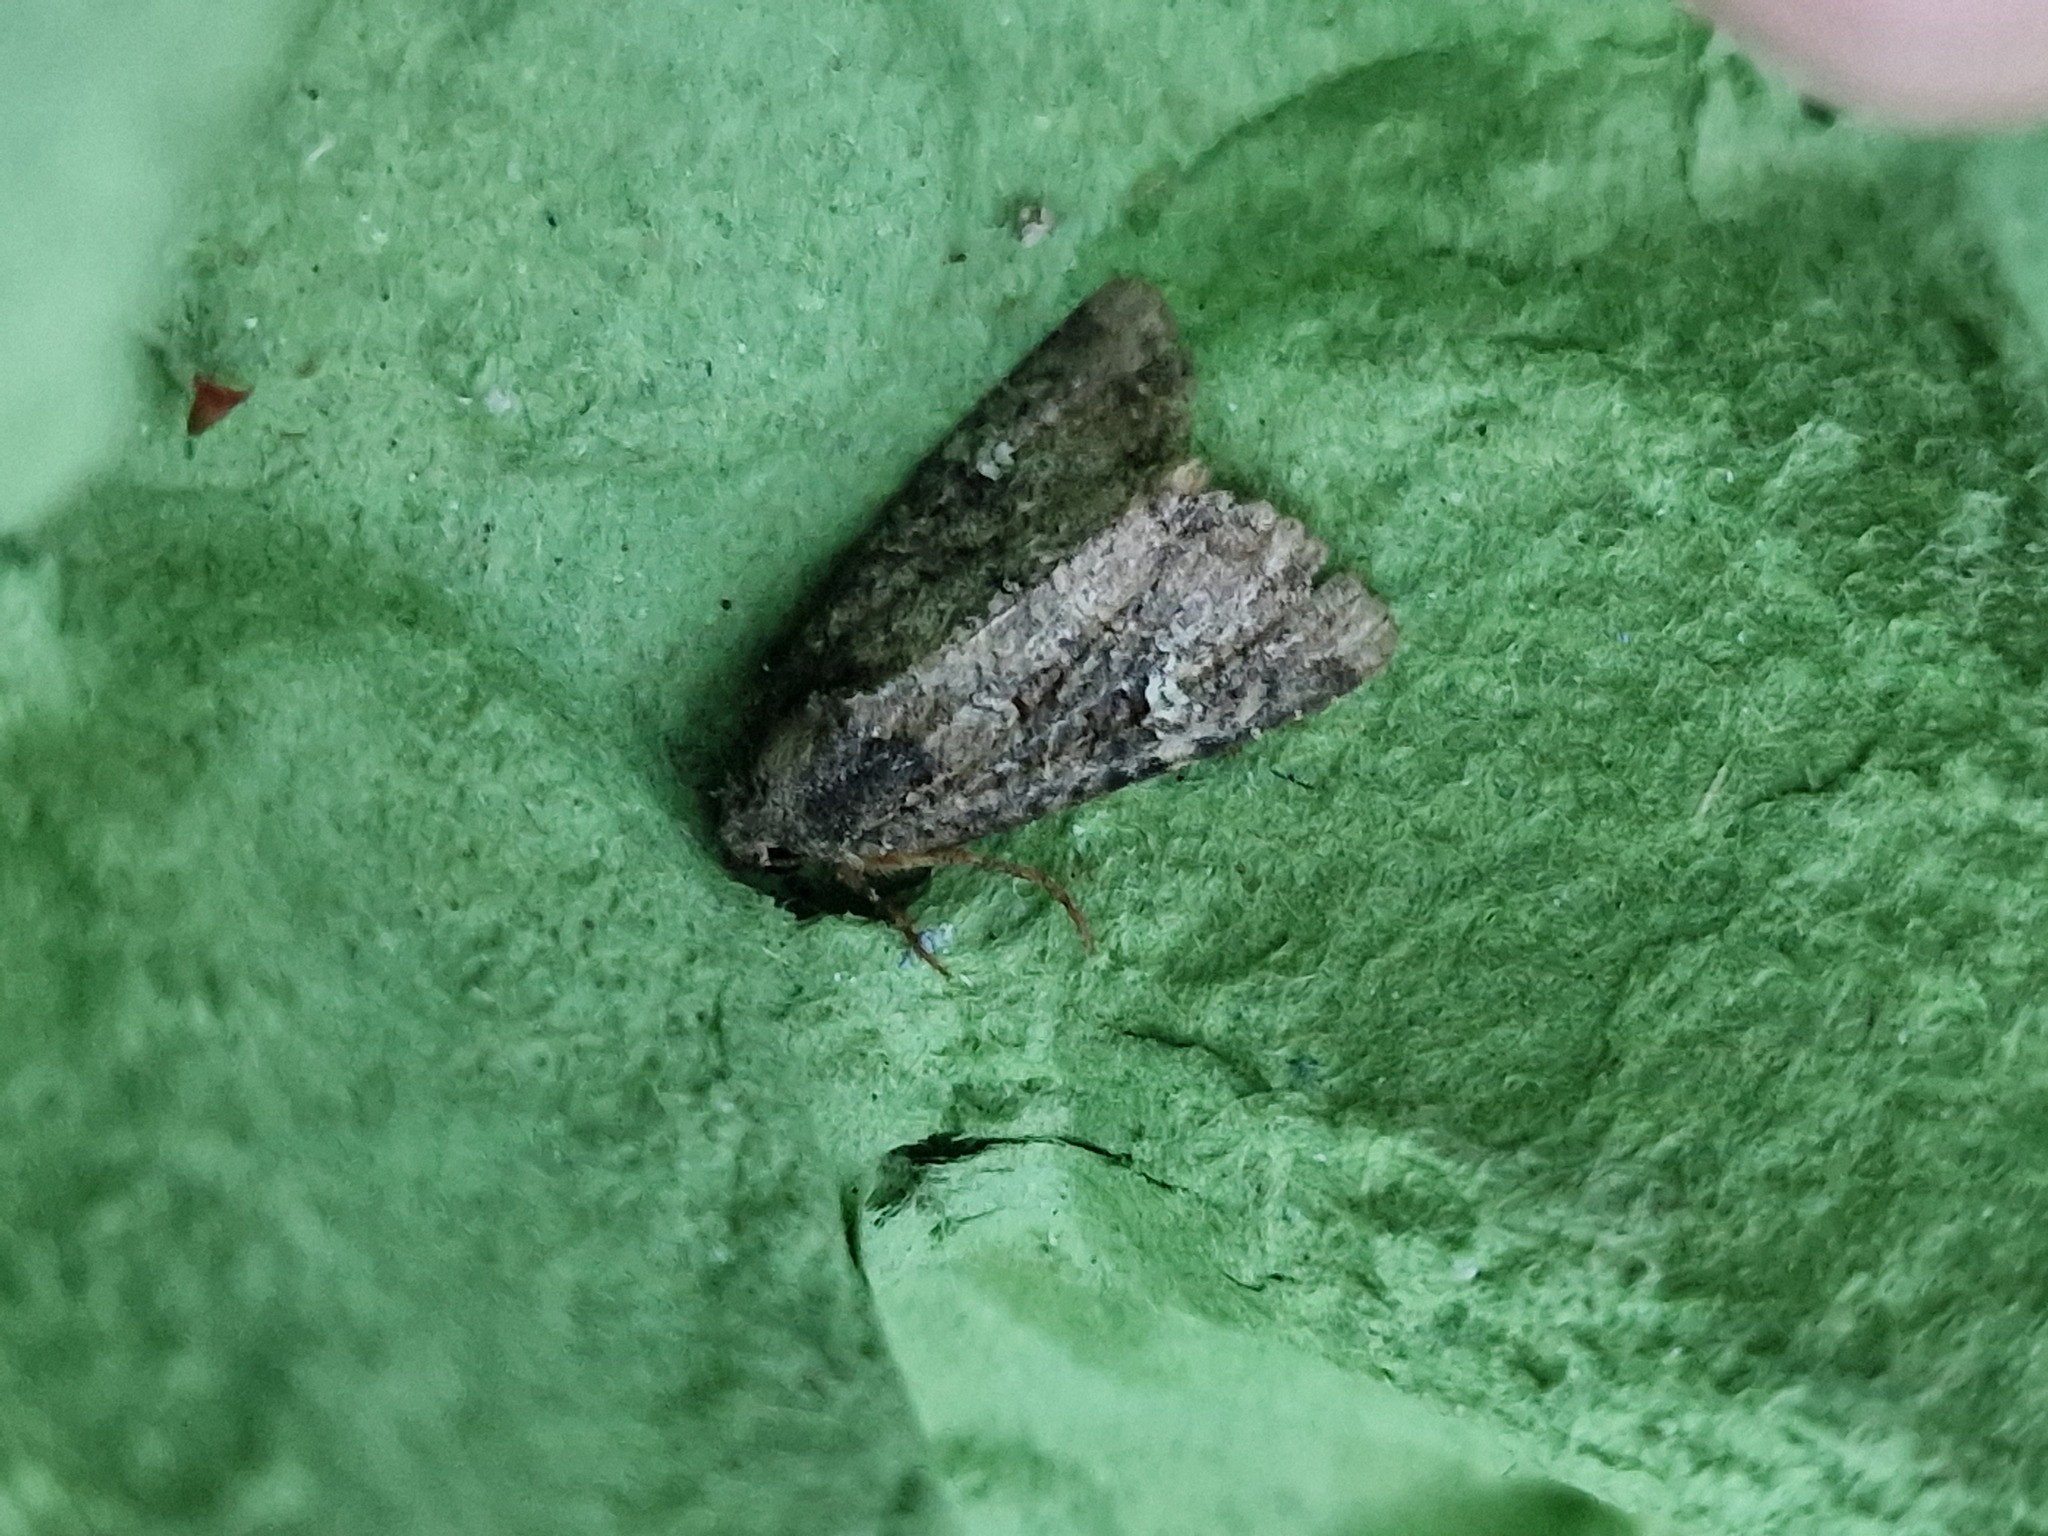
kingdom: Animalia
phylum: Arthropoda
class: Insecta
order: Lepidoptera
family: Noctuidae
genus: Mesapamea
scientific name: Mesapamea
